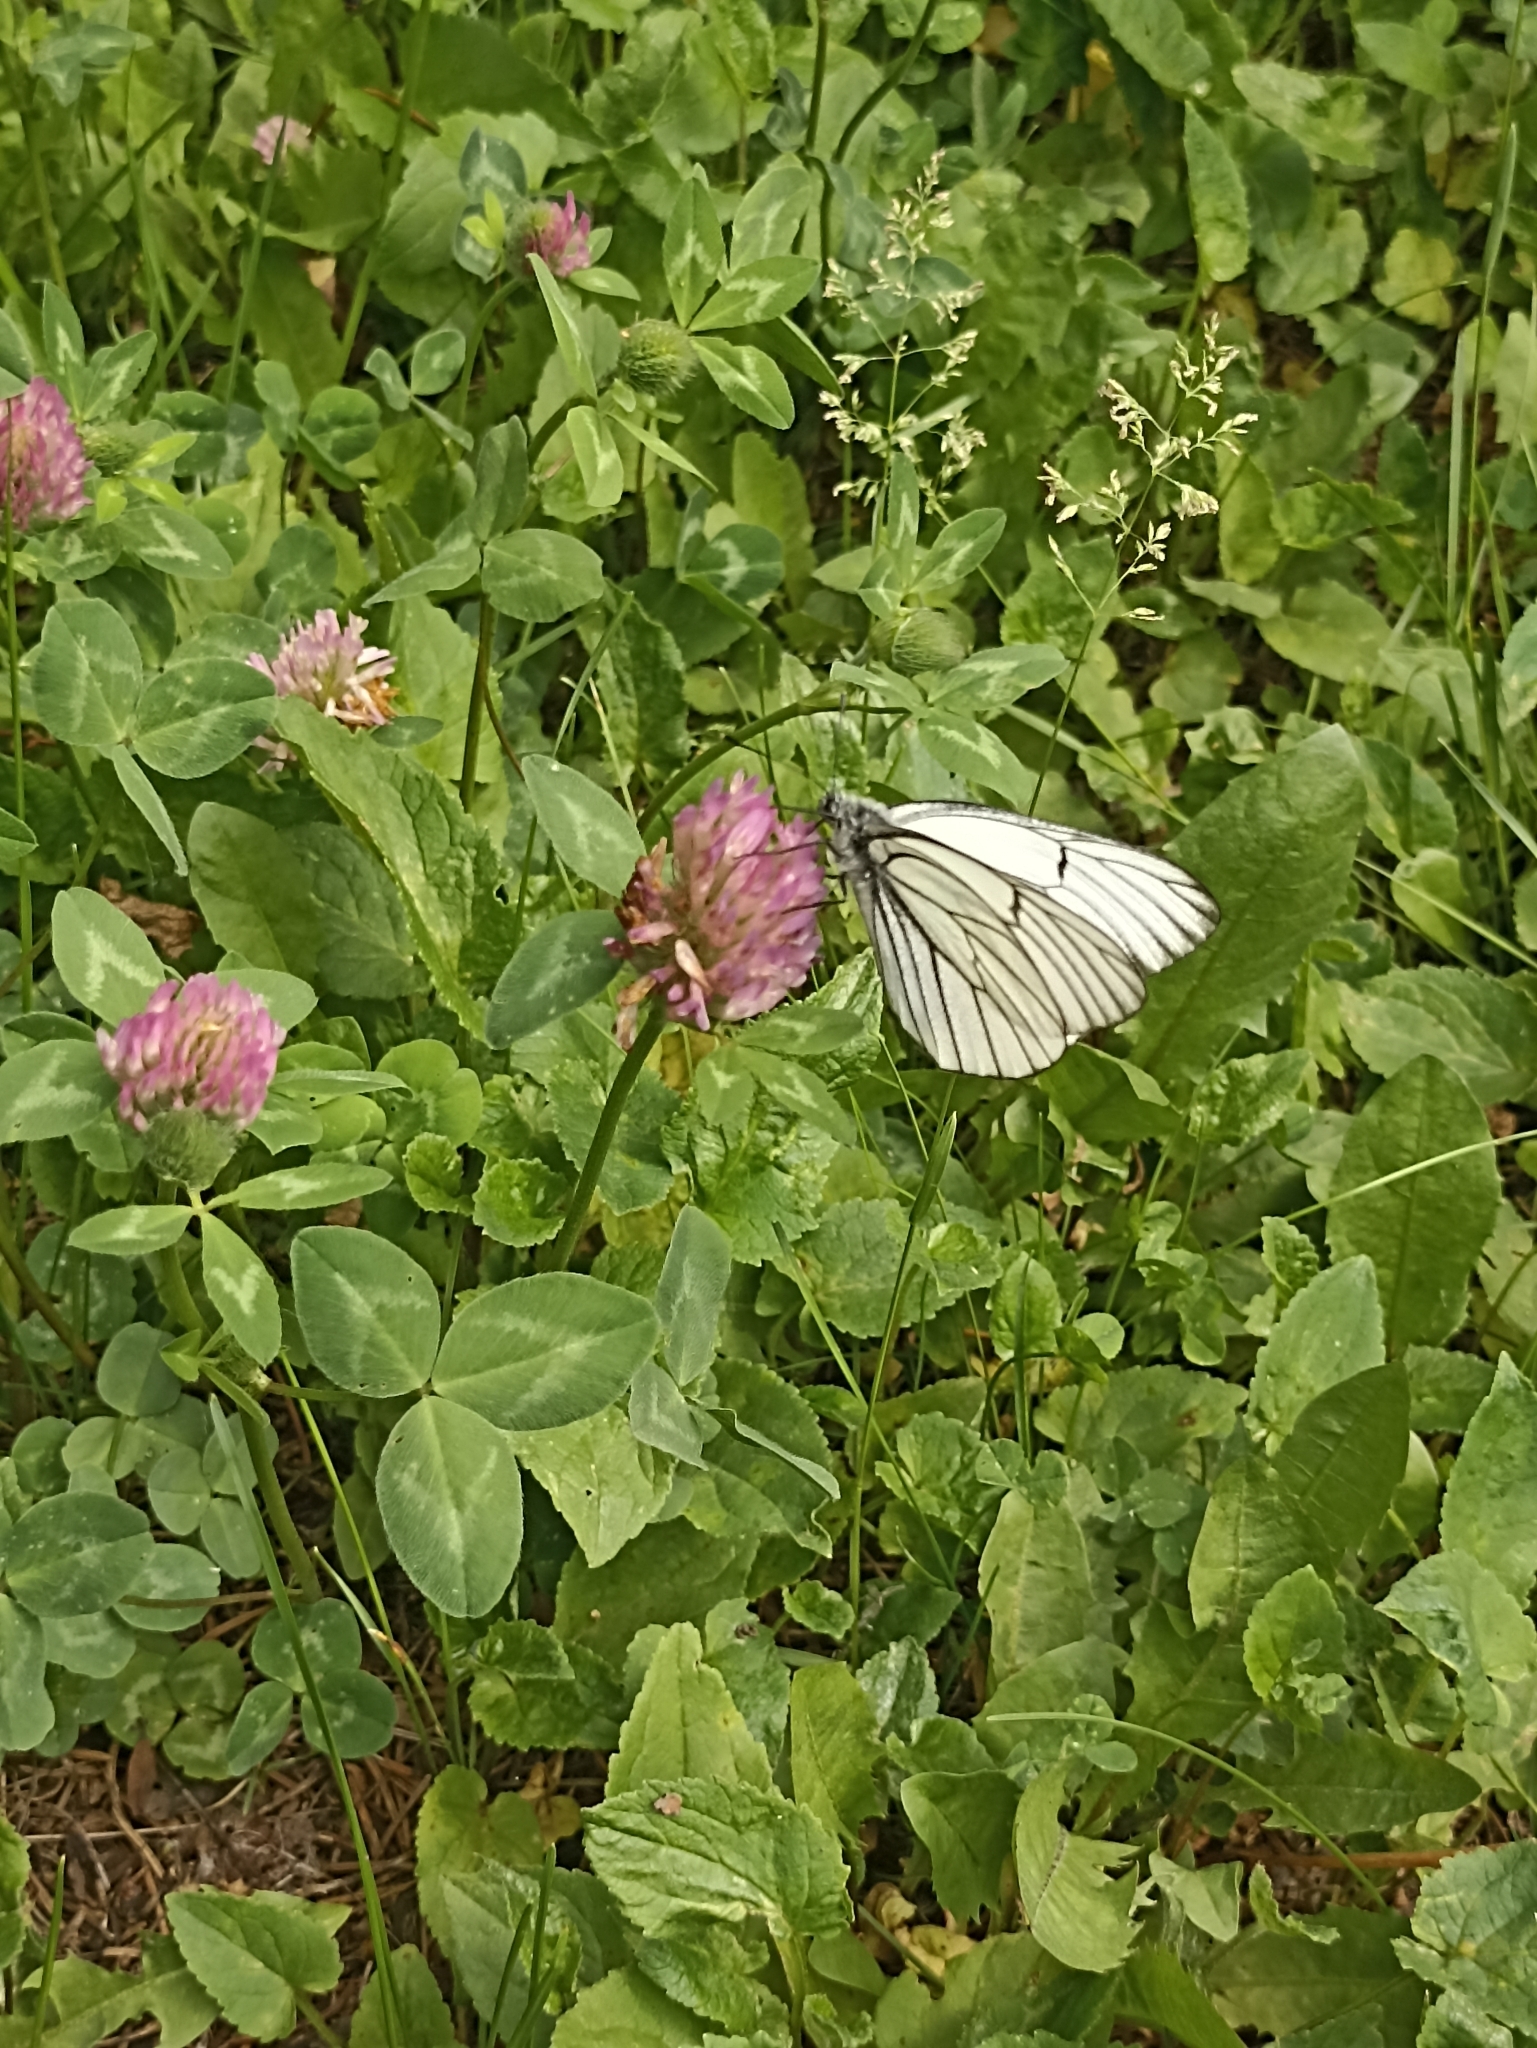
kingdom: Animalia
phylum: Arthropoda
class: Insecta
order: Lepidoptera
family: Pieridae
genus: Aporia
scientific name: Aporia crataegi
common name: Black-veined white
